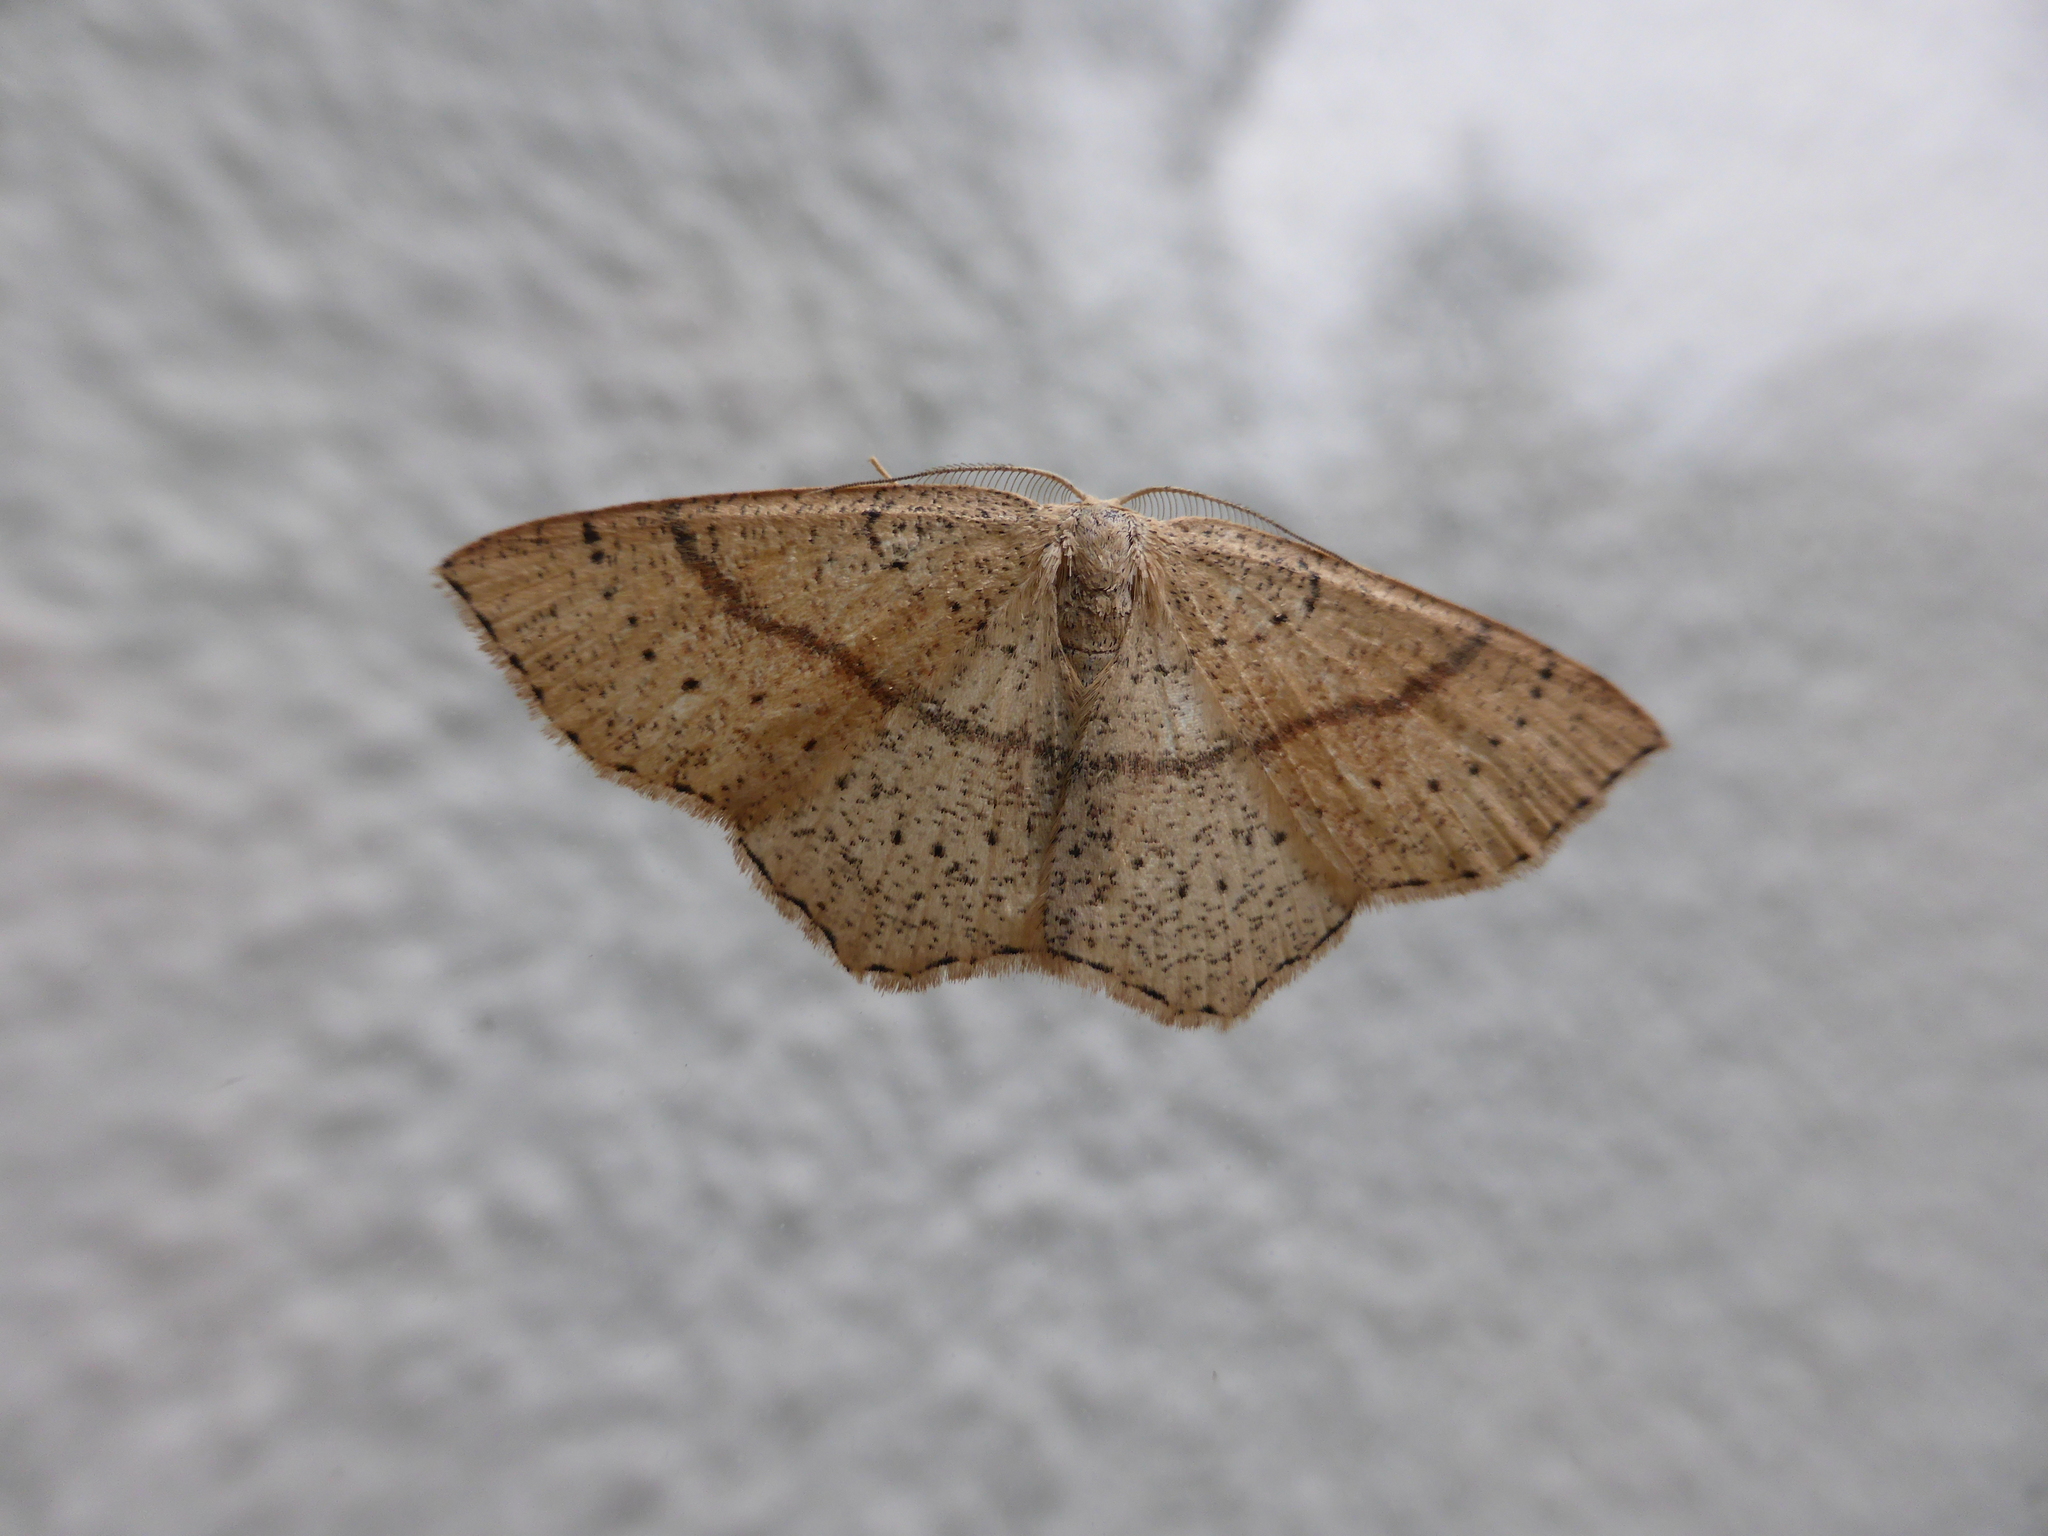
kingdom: Animalia
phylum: Arthropoda
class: Insecta
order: Lepidoptera
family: Geometridae
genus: Cyclophora
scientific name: Cyclophora punctaria
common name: Maiden's blush
